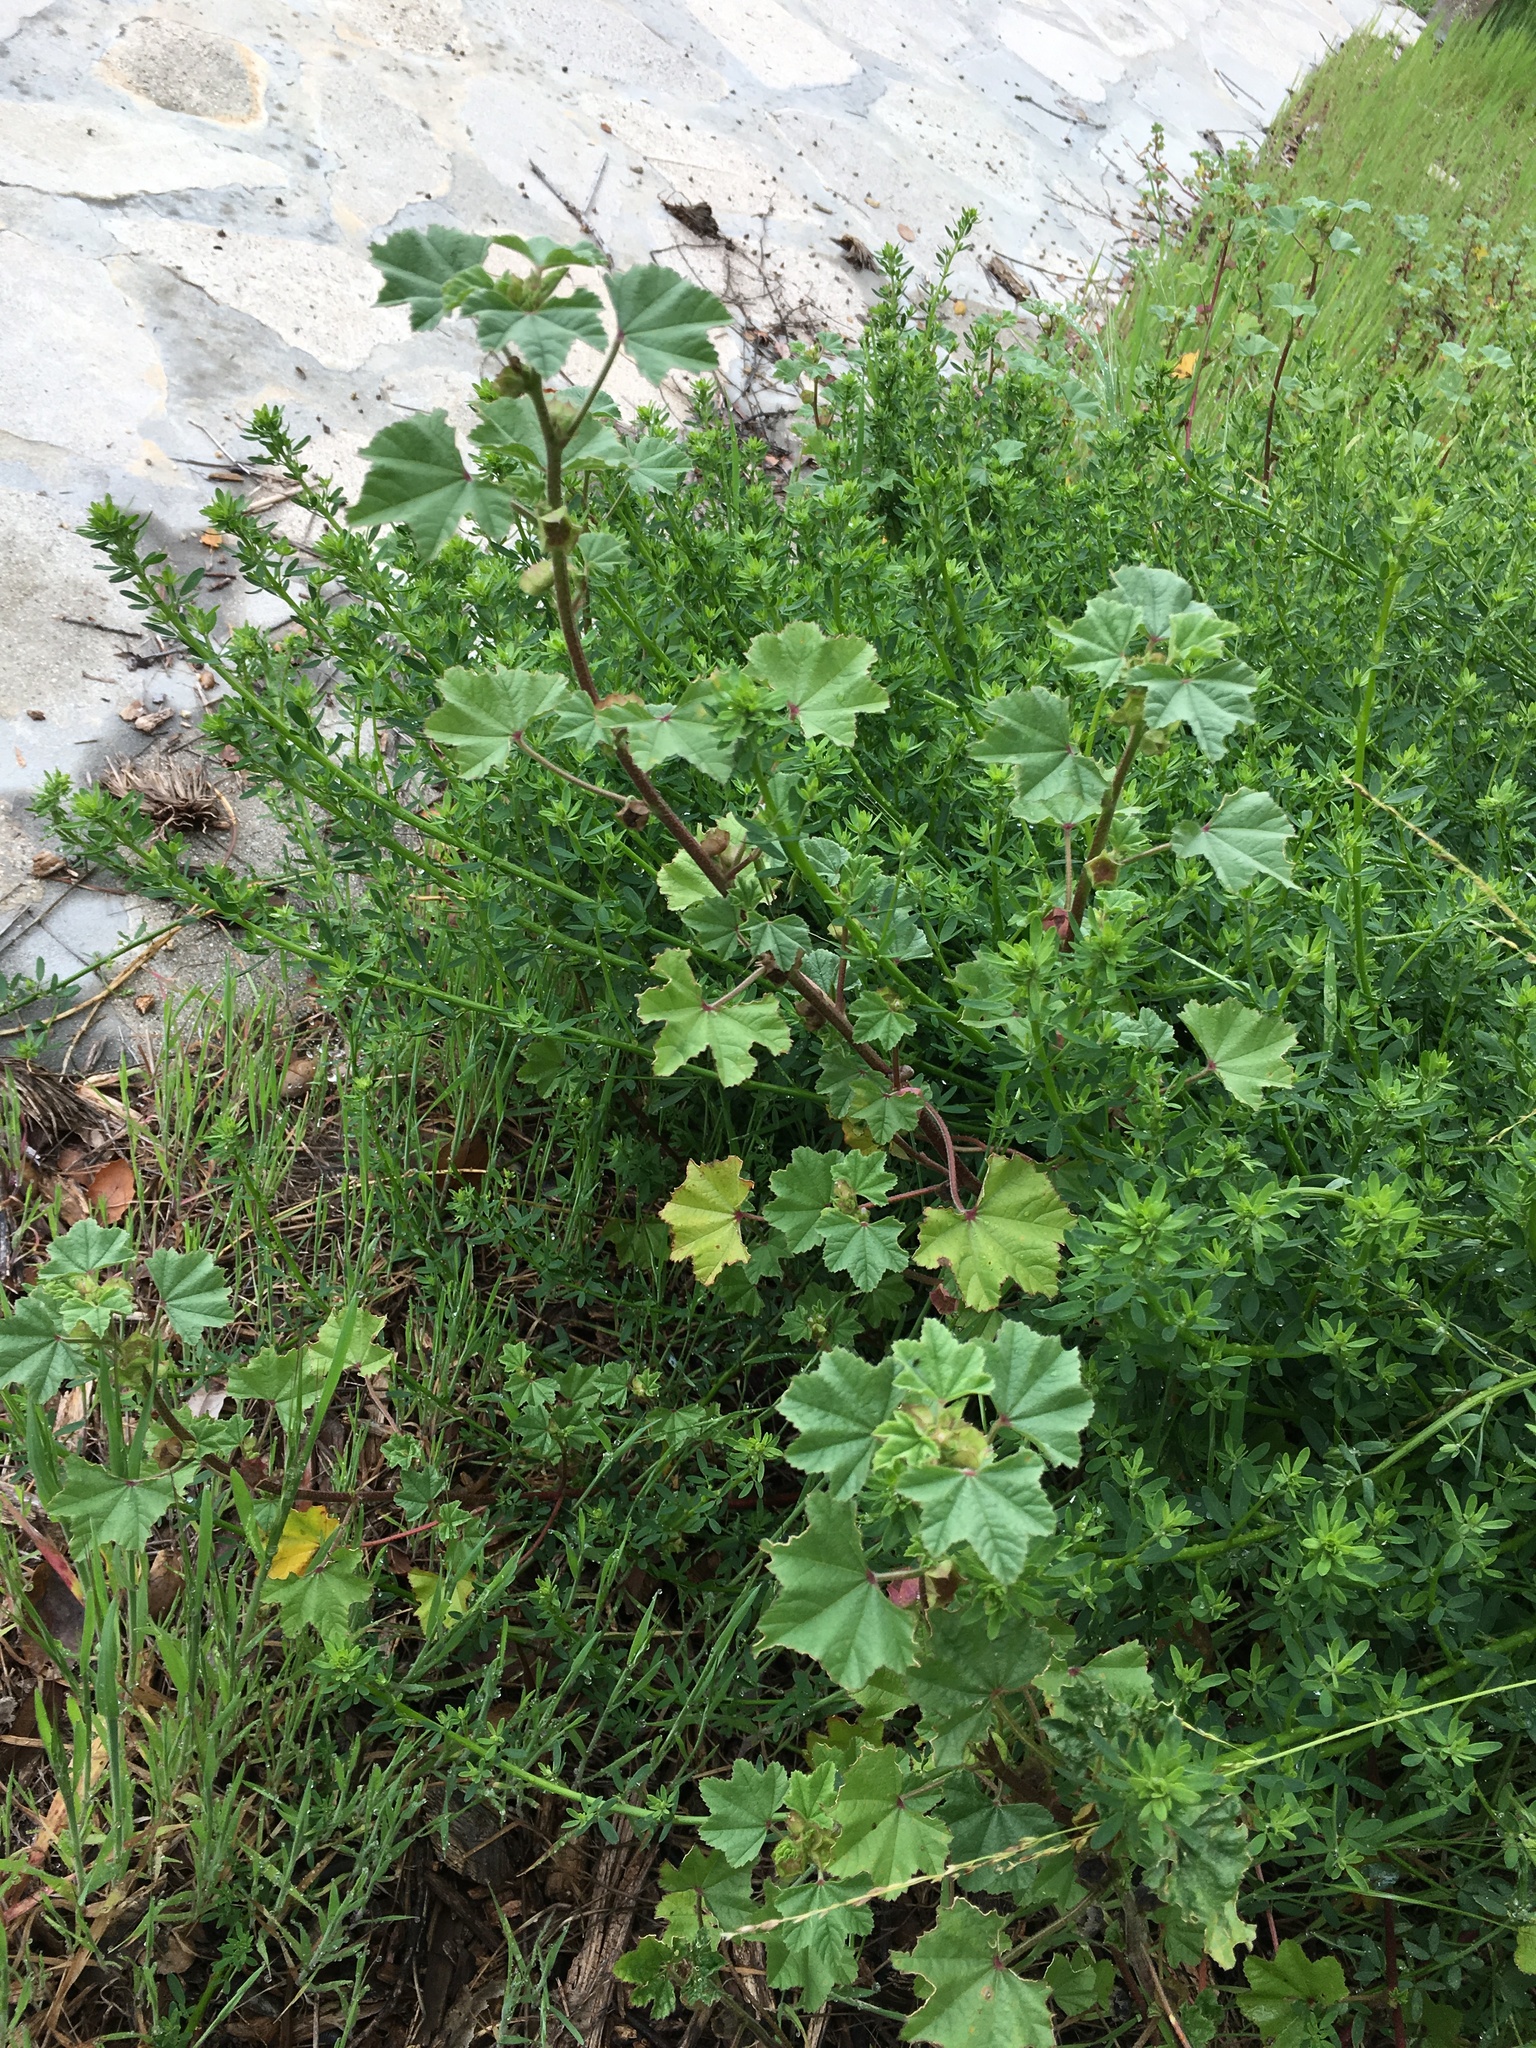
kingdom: Plantae
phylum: Tracheophyta
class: Magnoliopsida
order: Malvales
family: Malvaceae
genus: Malva
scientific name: Malva parviflora
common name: Least mallow
